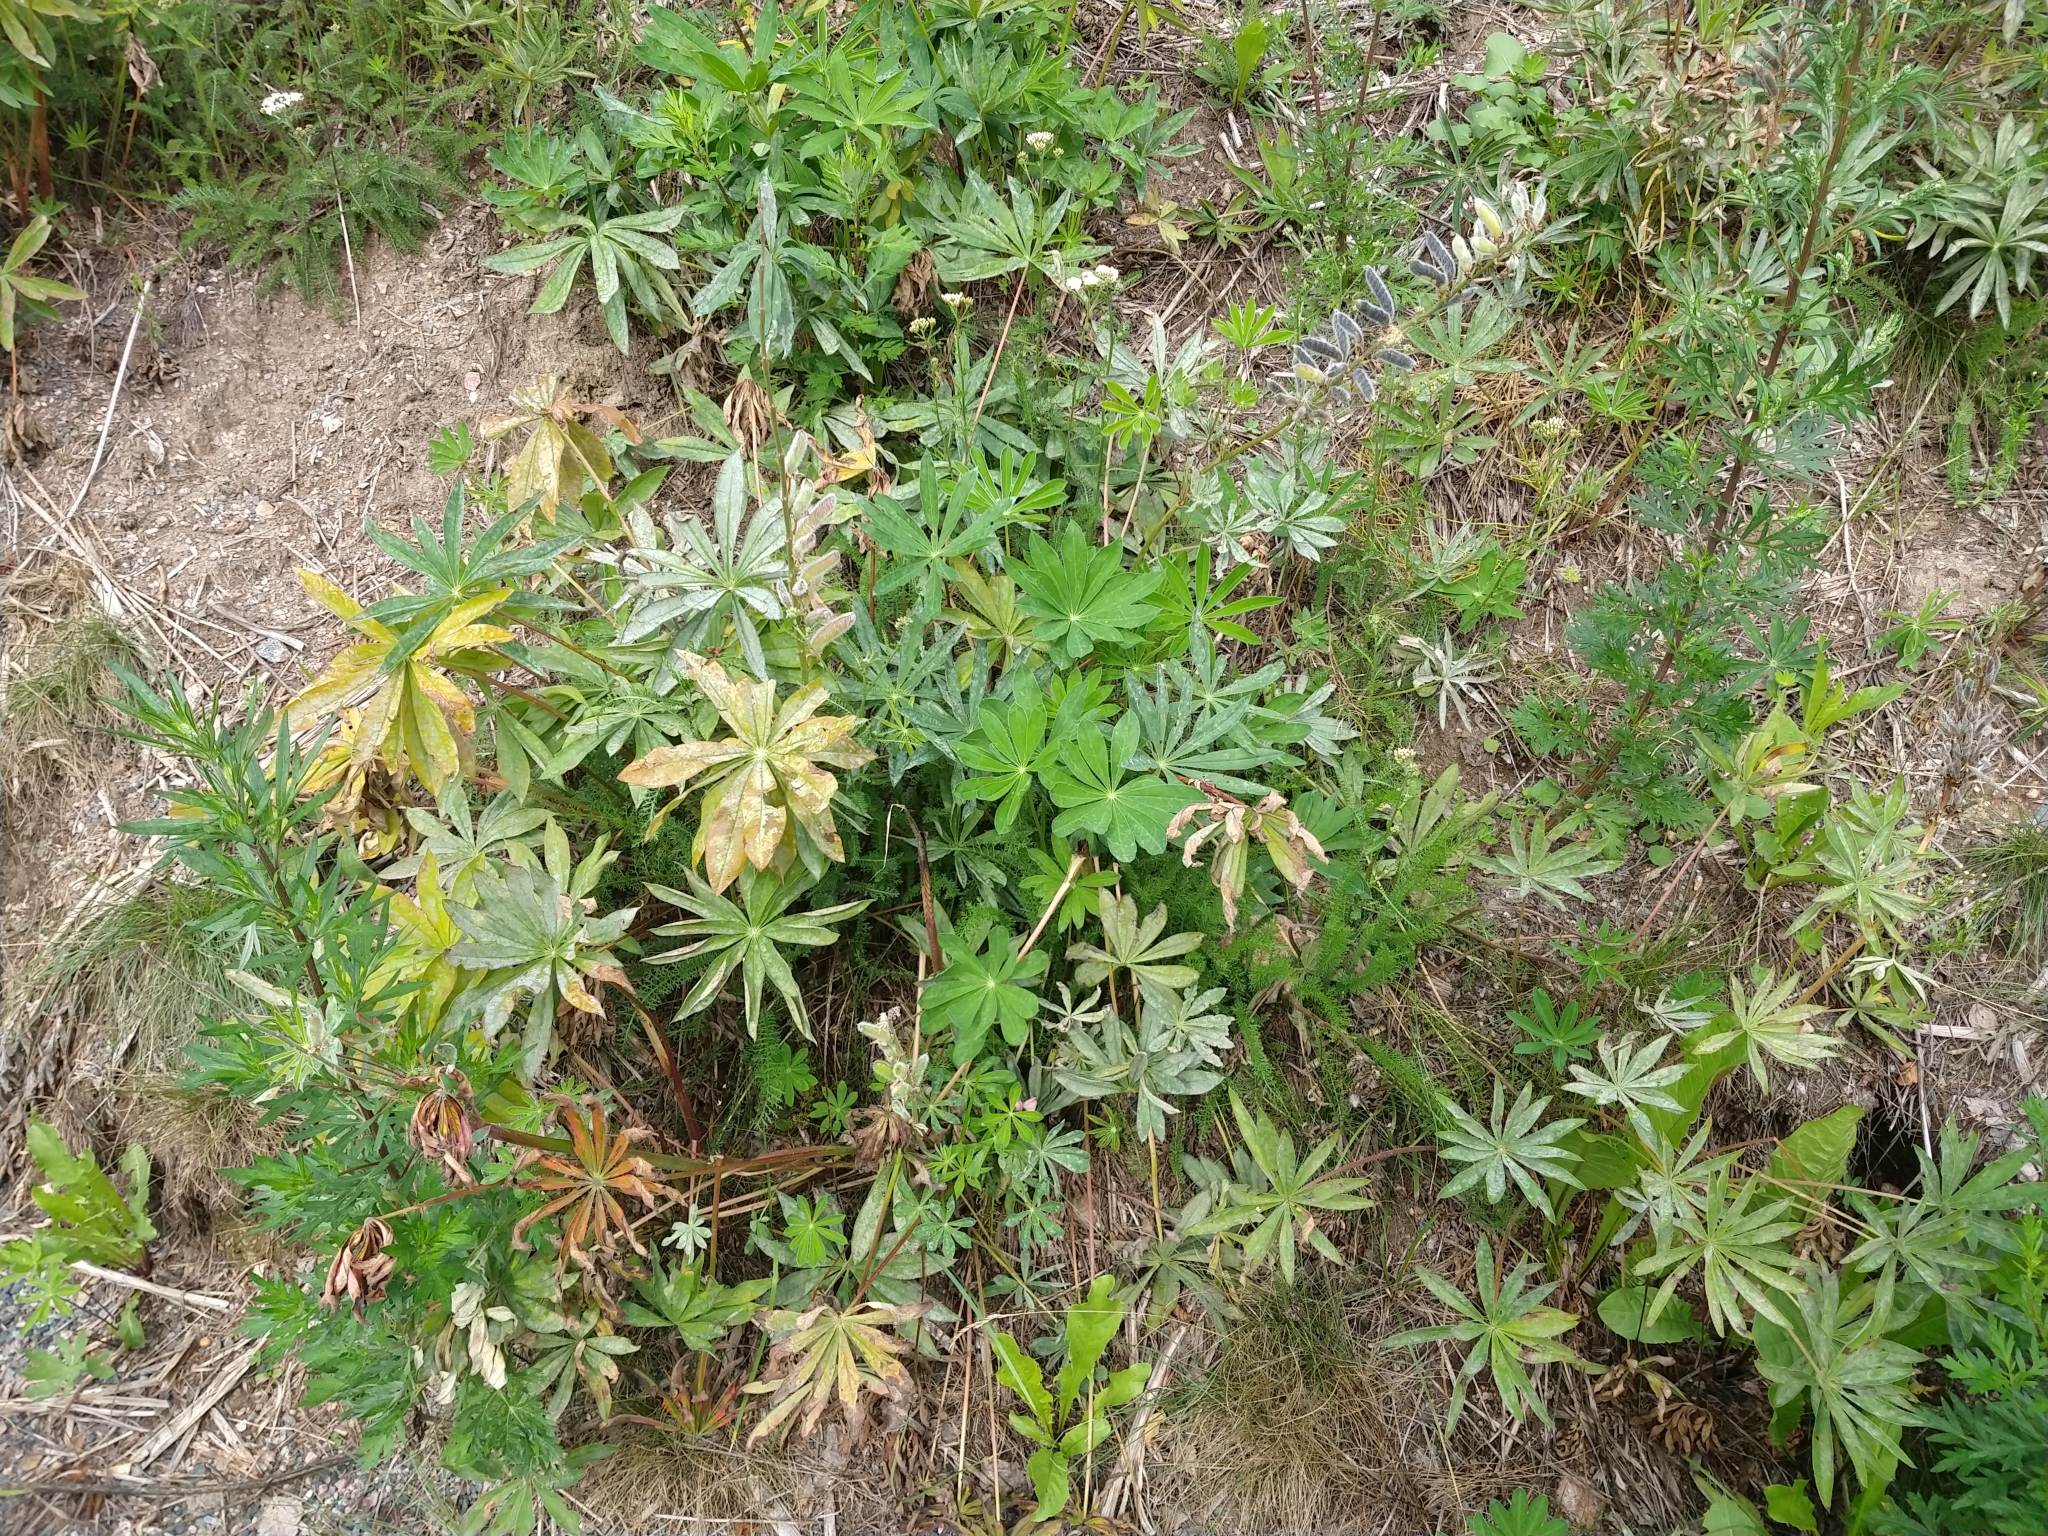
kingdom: Plantae
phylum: Tracheophyta
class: Magnoliopsida
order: Fabales
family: Fabaceae
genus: Lupinus
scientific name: Lupinus polyphyllus
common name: Garden lupin
